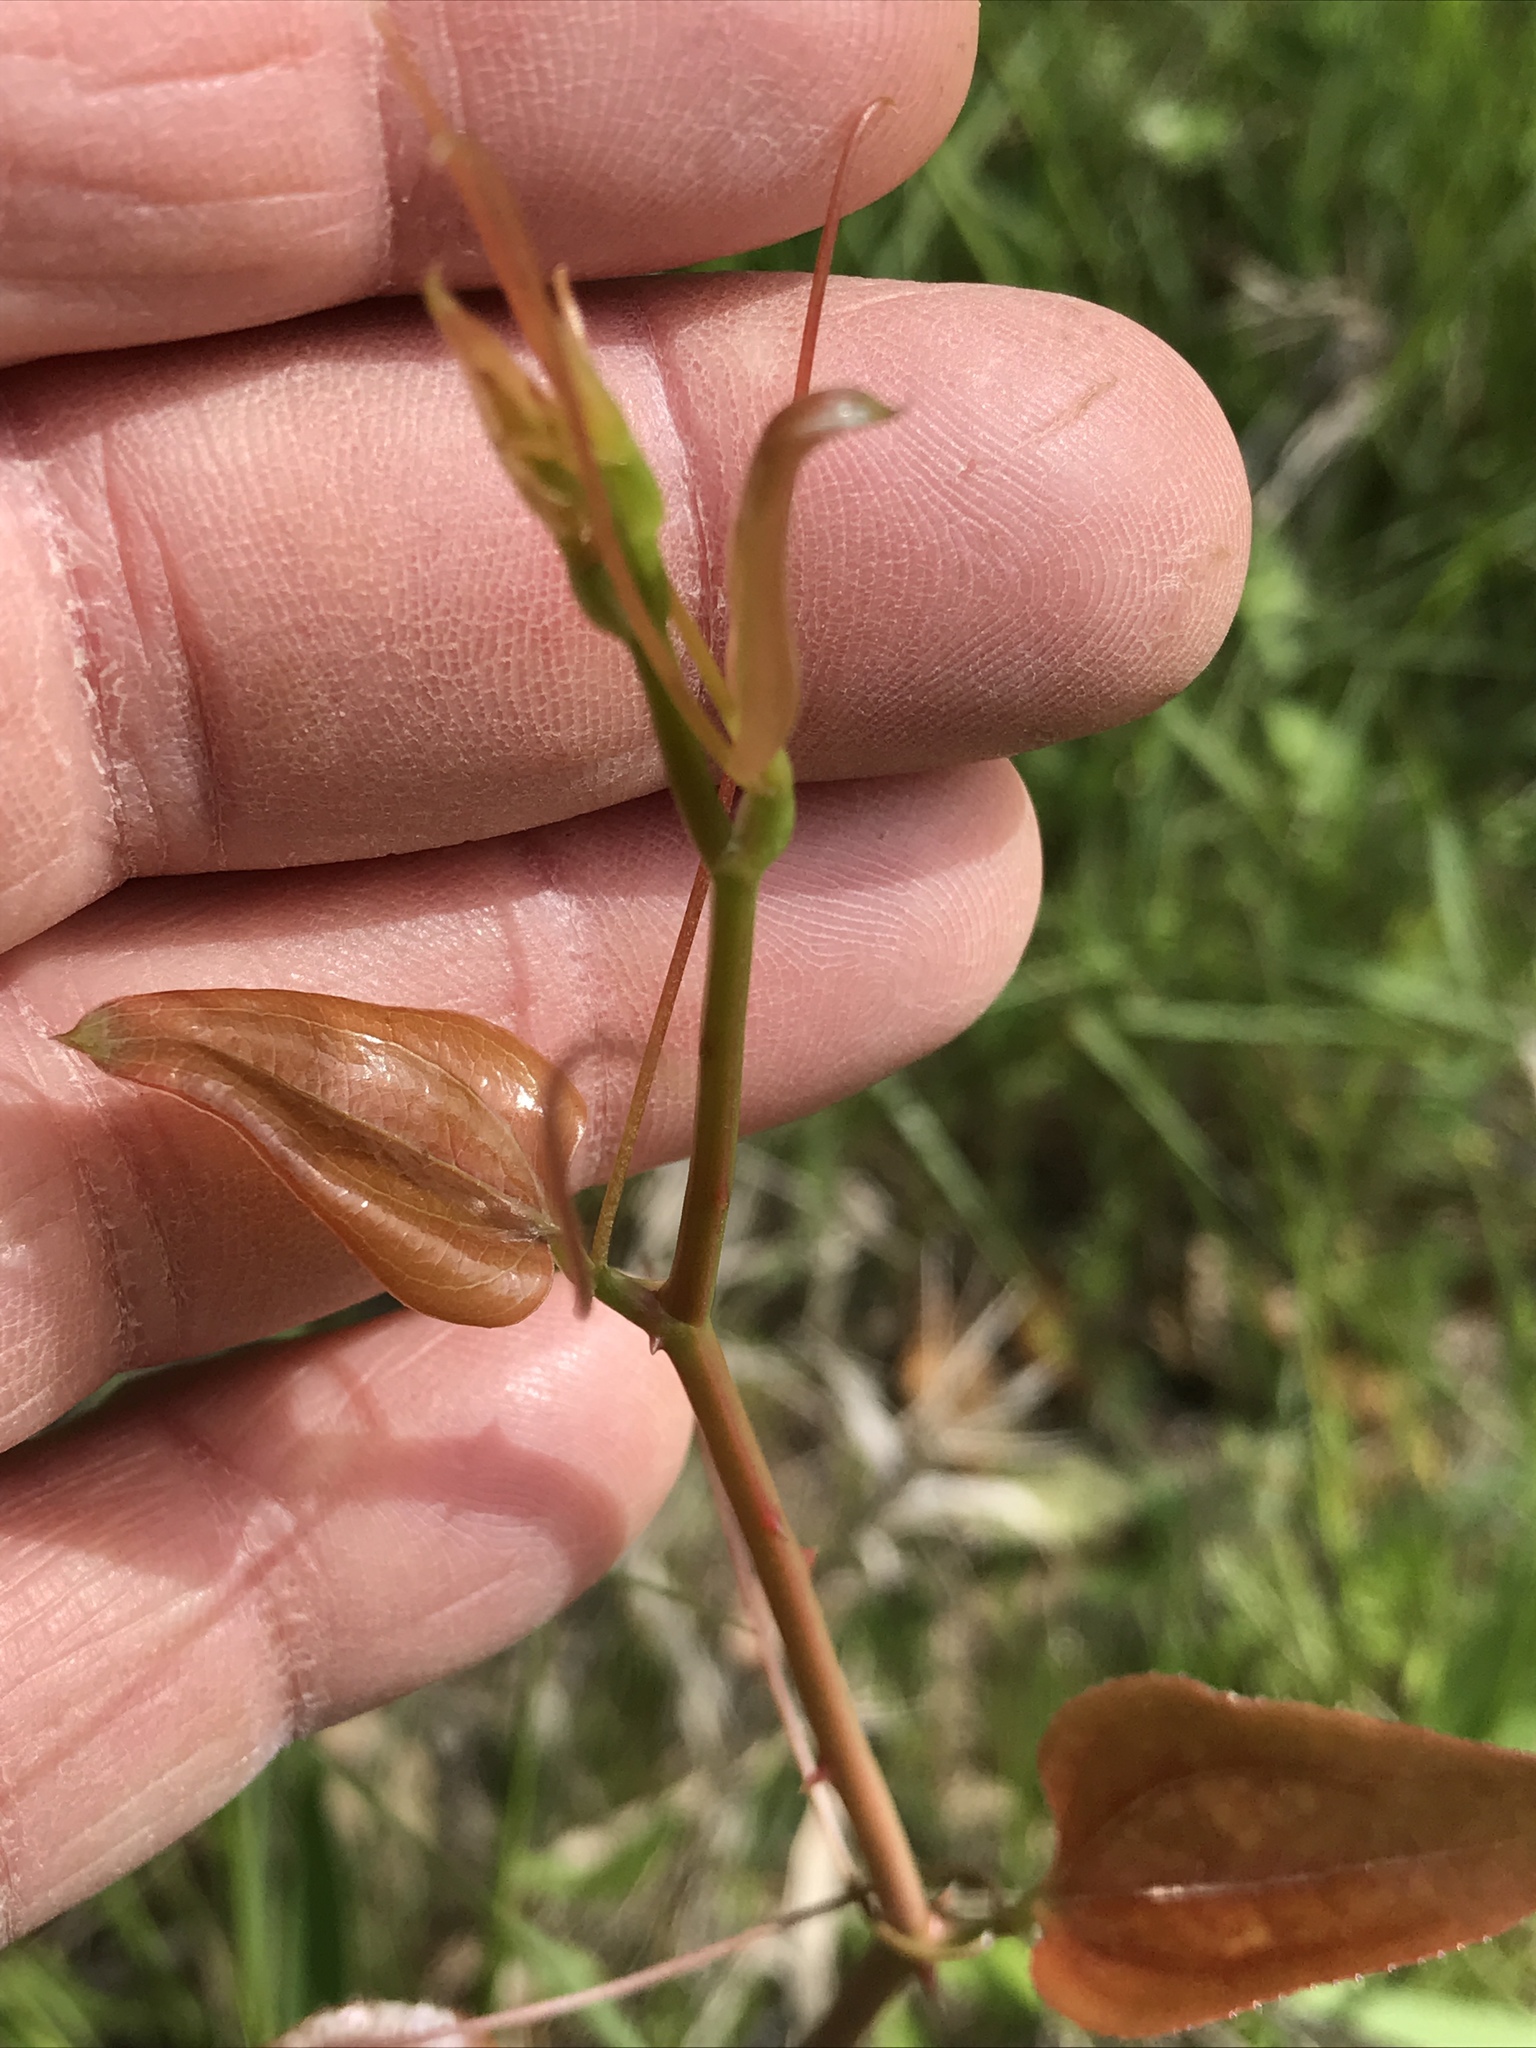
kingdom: Plantae
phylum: Tracheophyta
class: Liliopsida
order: Liliales
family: Smilacaceae
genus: Smilax
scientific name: Smilax bona-nox
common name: Catbrier
